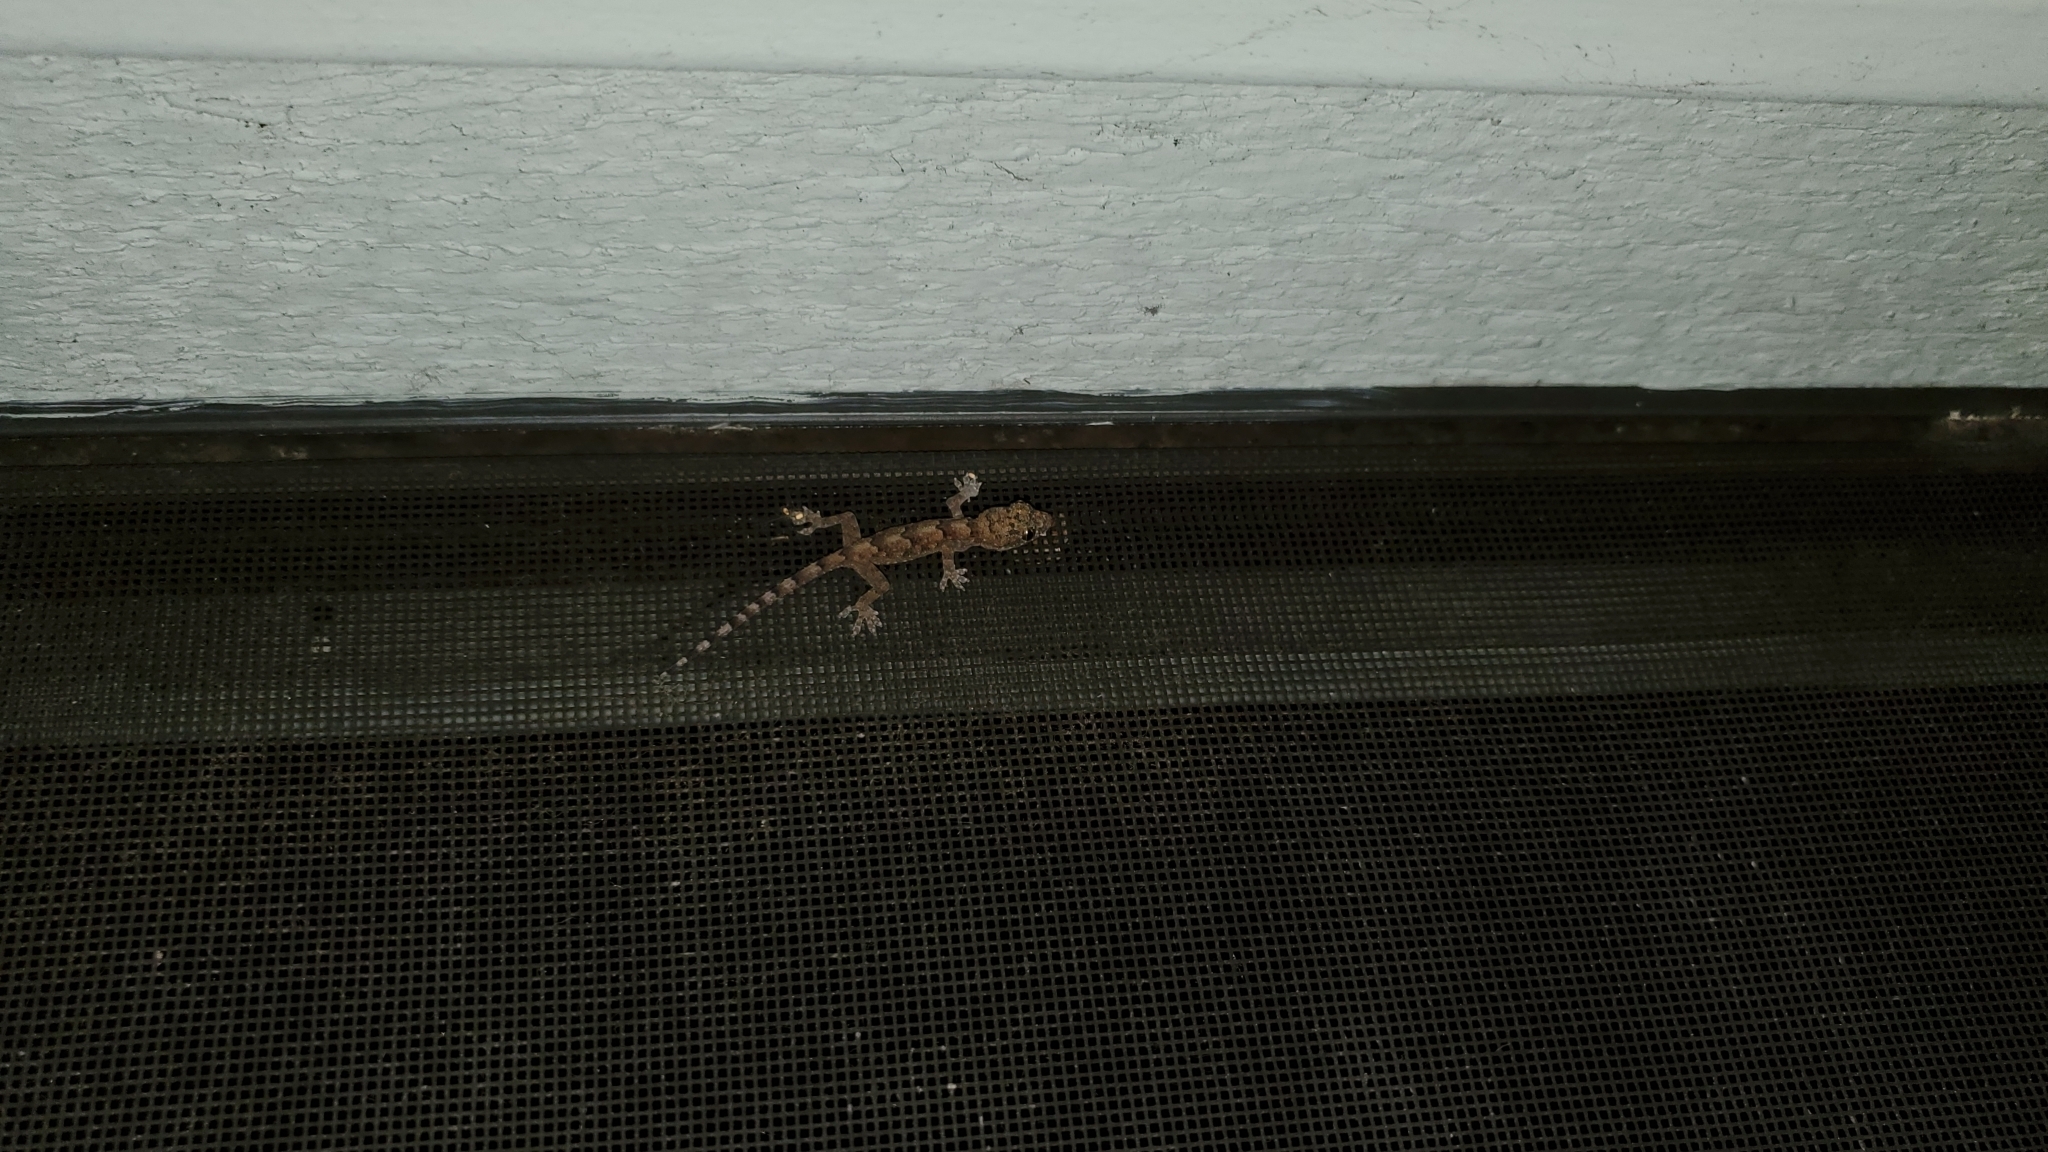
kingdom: Animalia
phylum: Chordata
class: Squamata
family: Gekkonidae
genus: Hemidactylus
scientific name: Hemidactylus mabouia
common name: House gecko
